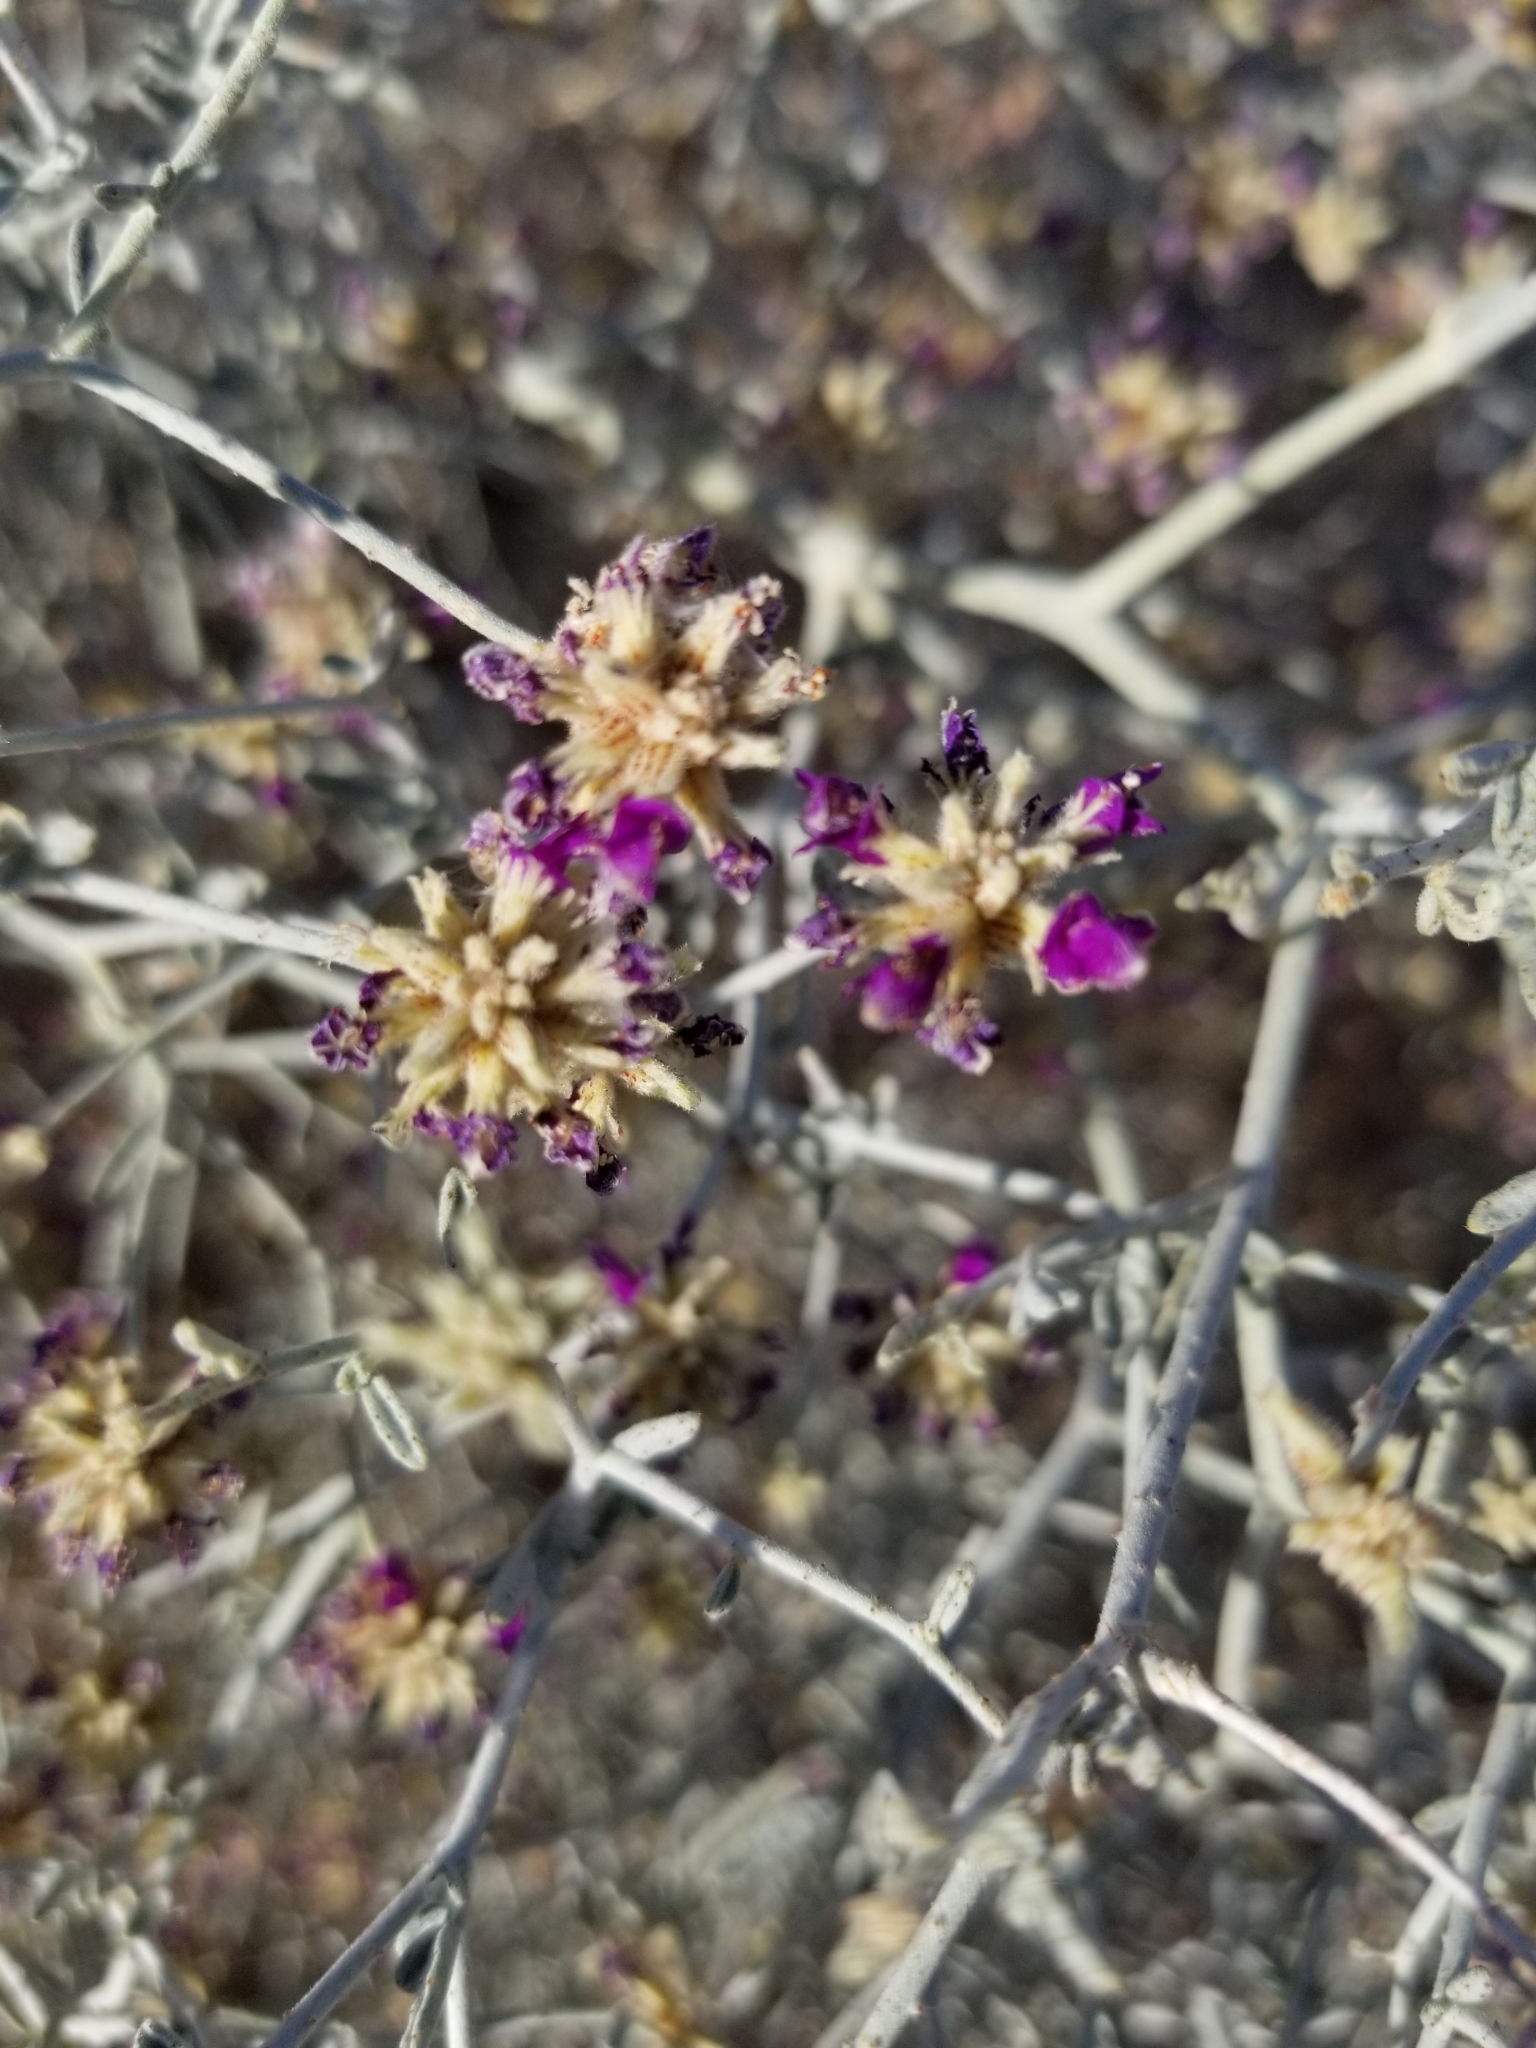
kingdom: Plantae
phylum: Tracheophyta
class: Magnoliopsida
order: Fabales
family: Fabaceae
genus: Psorothamnus
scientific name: Psorothamnus emoryi
